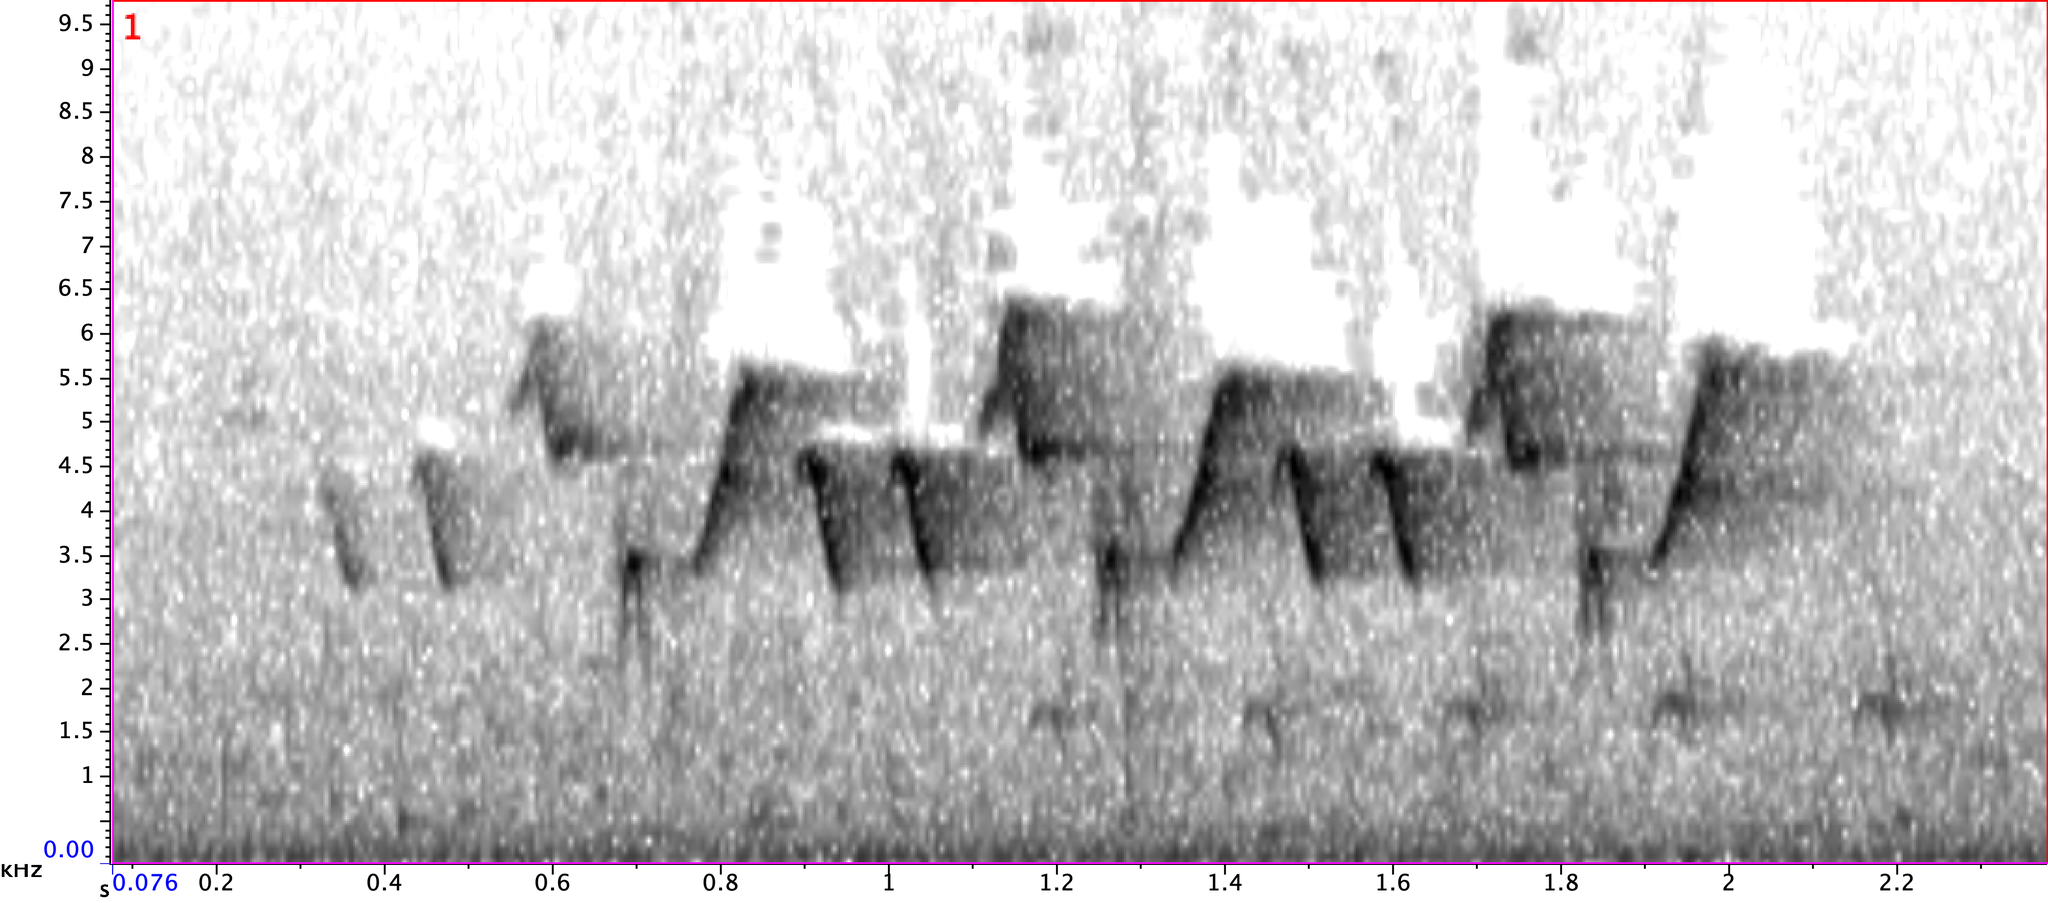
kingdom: Animalia
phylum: Chordata
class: Aves
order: Passeriformes
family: Parulidae
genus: Geothlypis
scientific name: Geothlypis trichas
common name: Common yellowthroat
